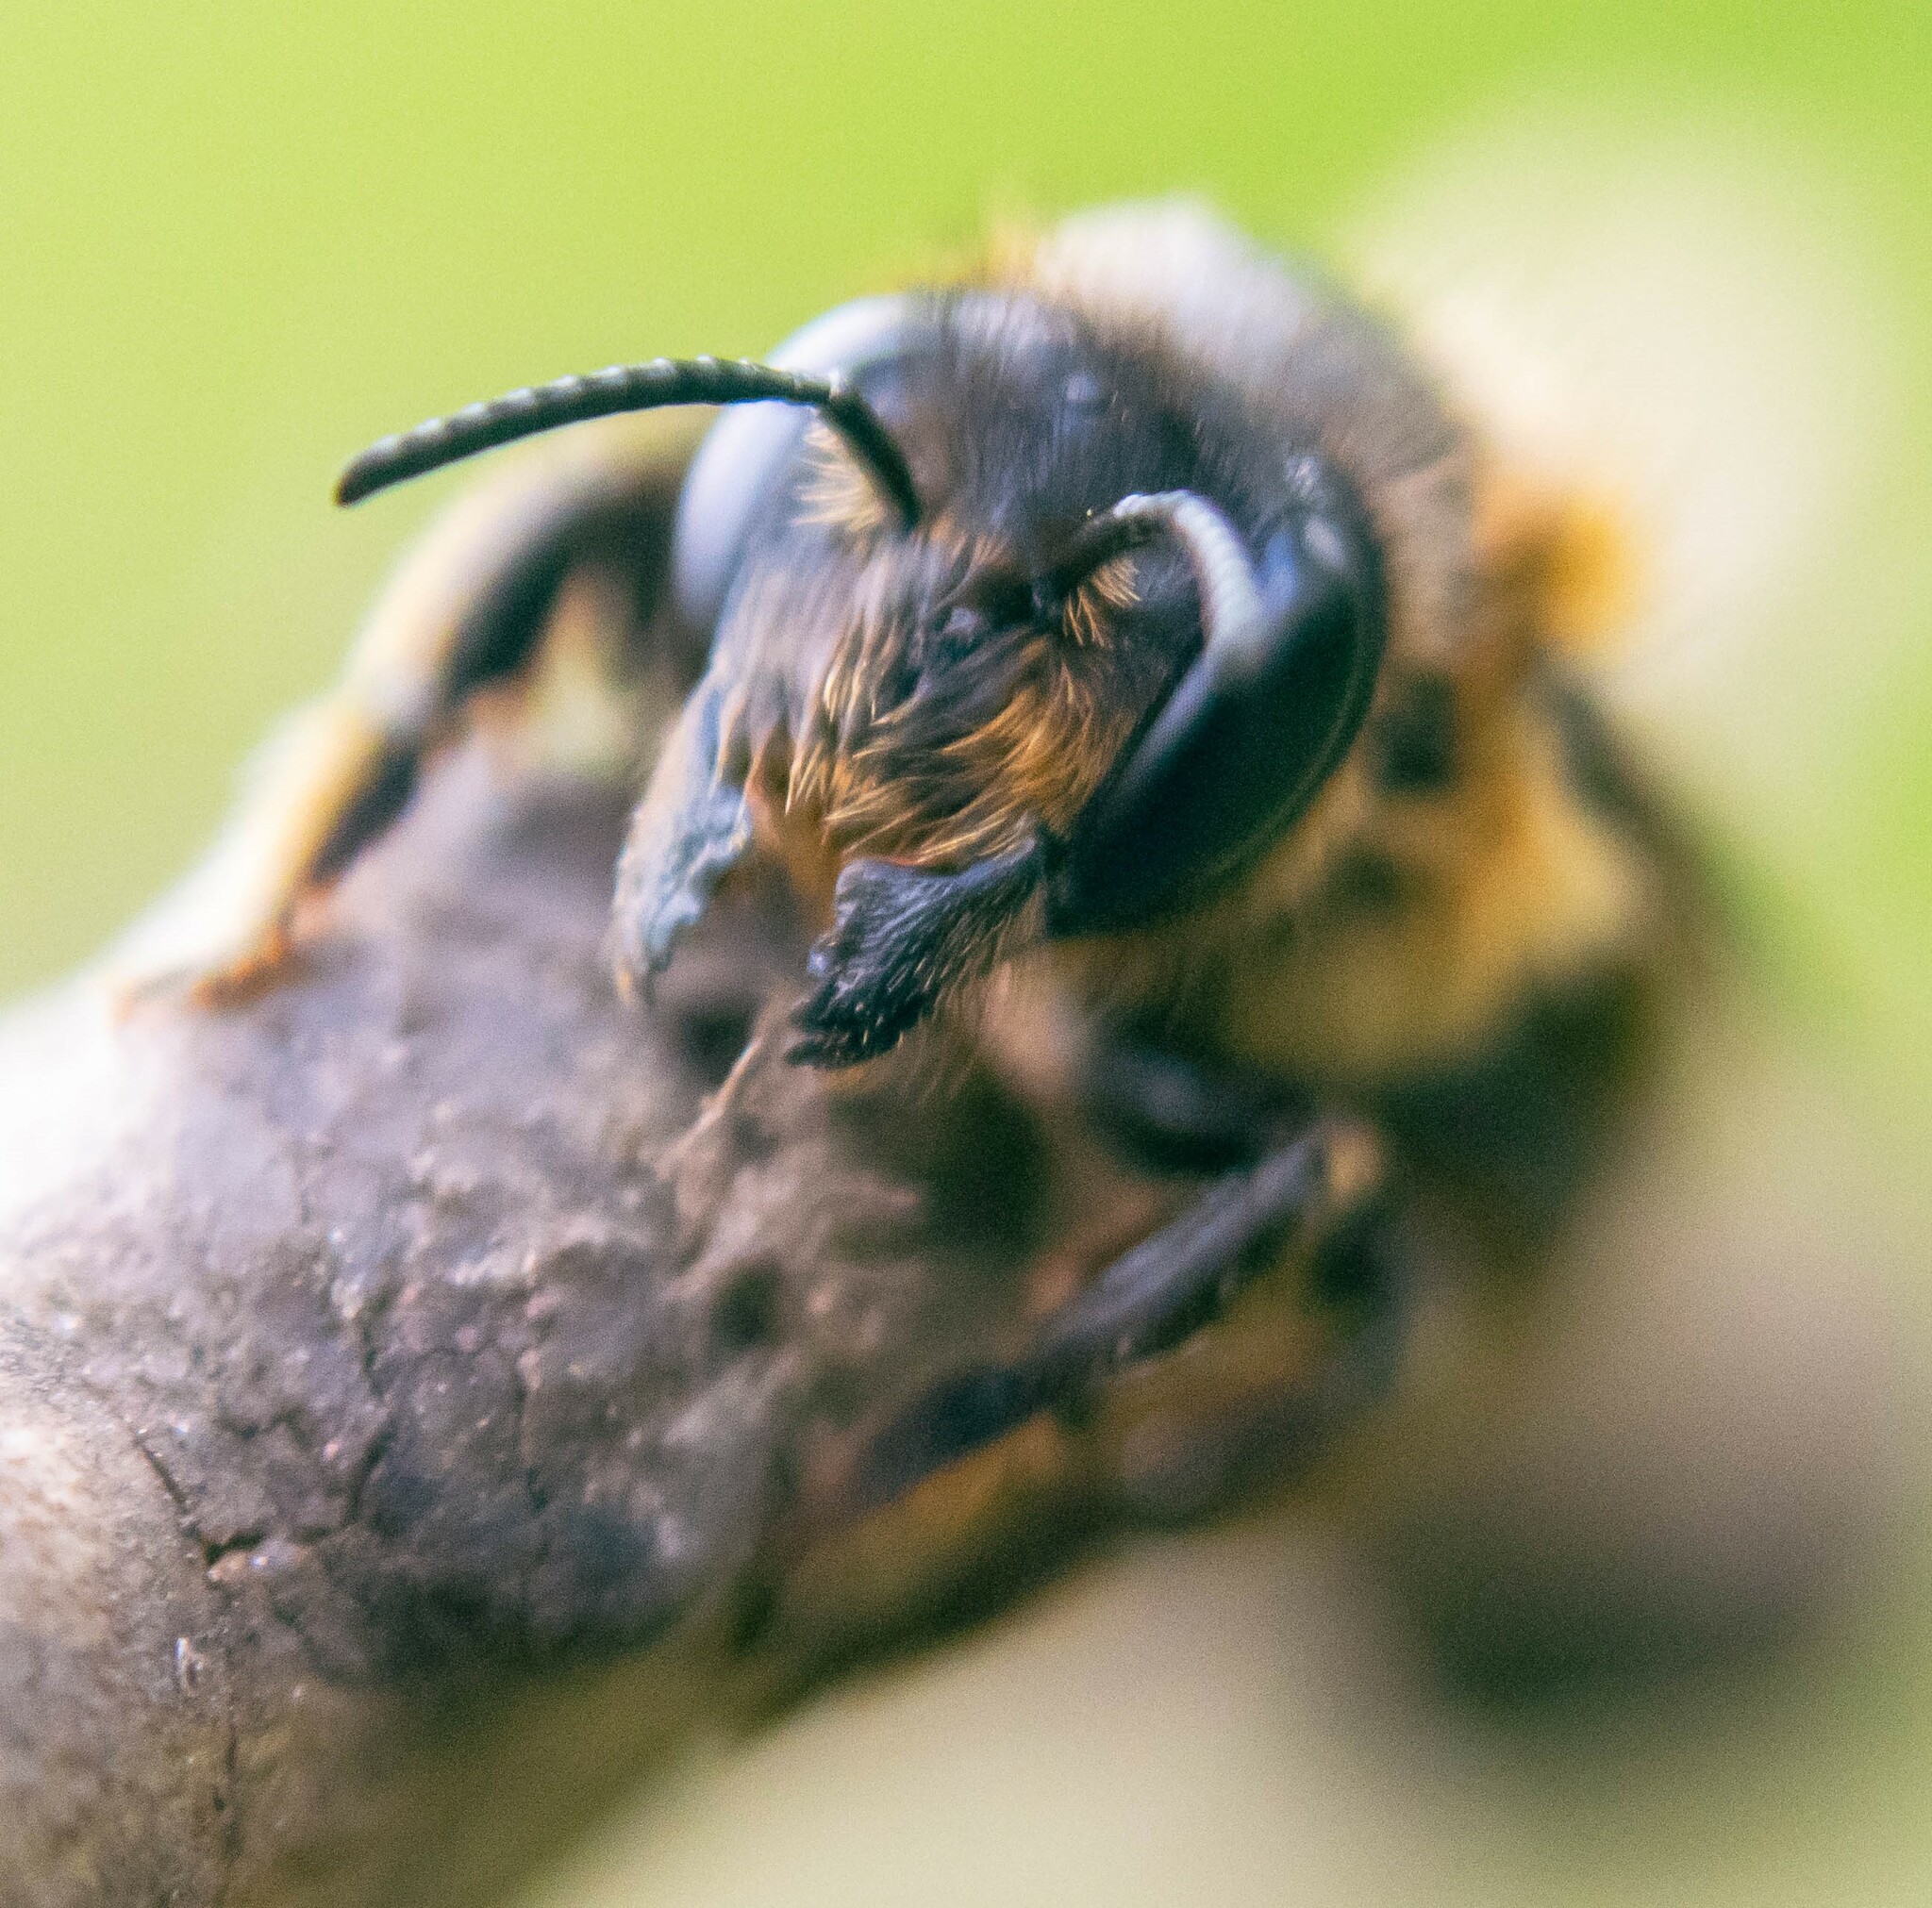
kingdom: Animalia
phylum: Arthropoda
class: Insecta
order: Hymenoptera
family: Megachilidae
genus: Megachile
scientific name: Megachile willughbiella
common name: Willughby's leafcutter bee
